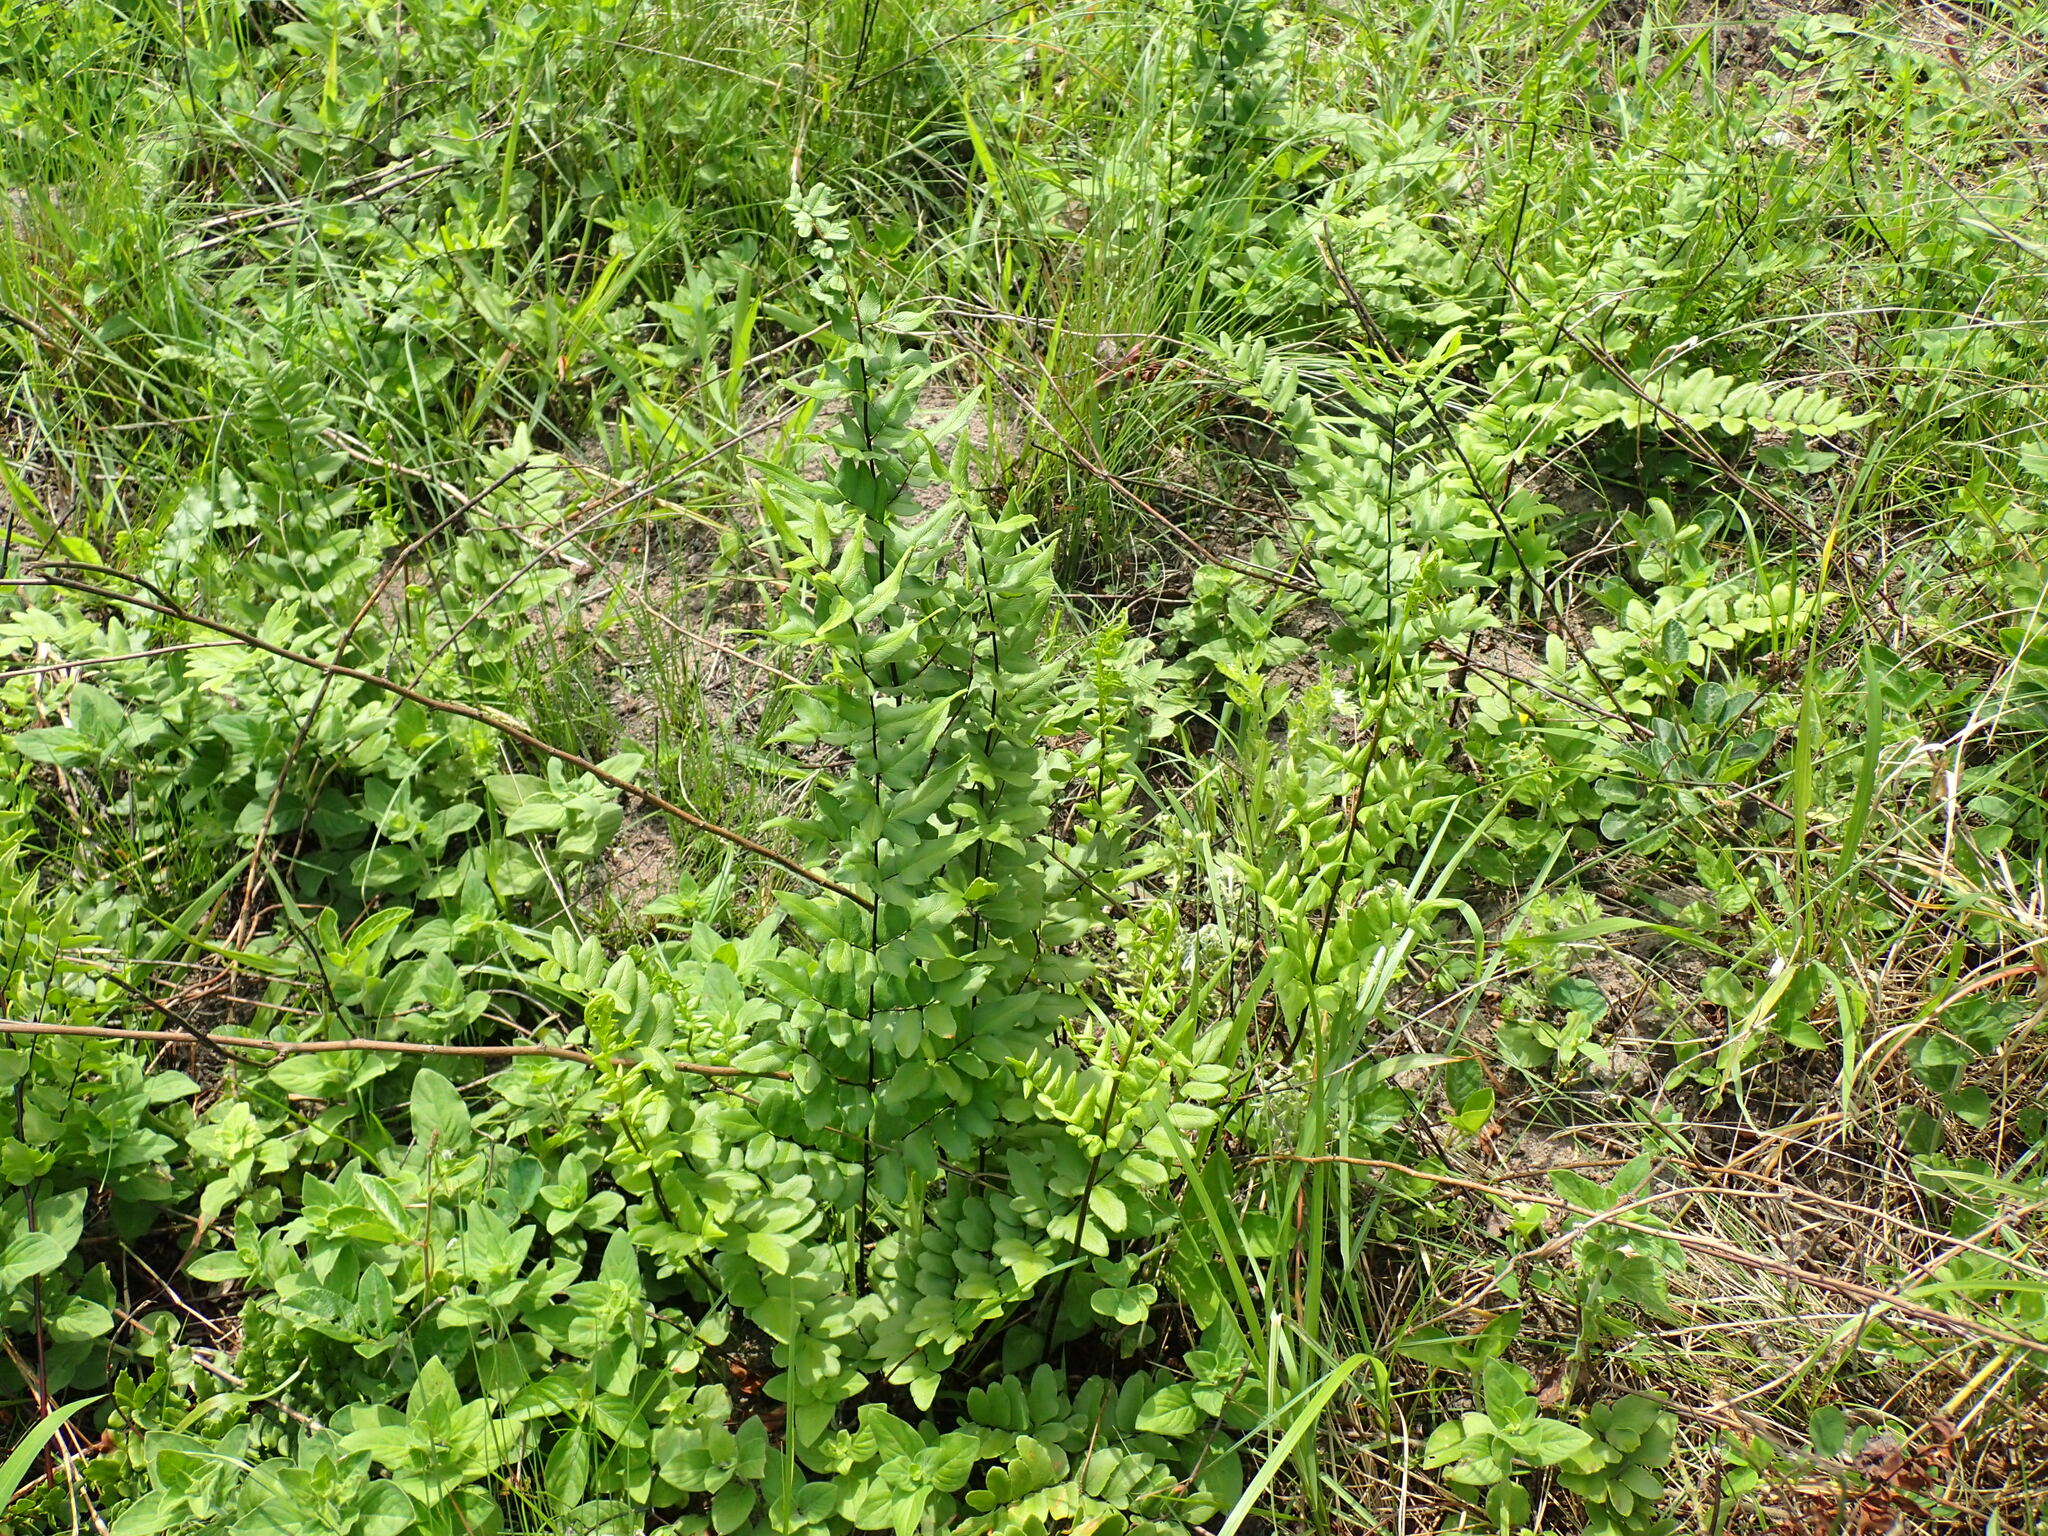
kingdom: Plantae
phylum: Tracheophyta
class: Polypodiopsida
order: Polypodiales
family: Pteridaceae
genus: Cheilanthes
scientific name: Cheilanthes viridis
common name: Green cliffbrake
